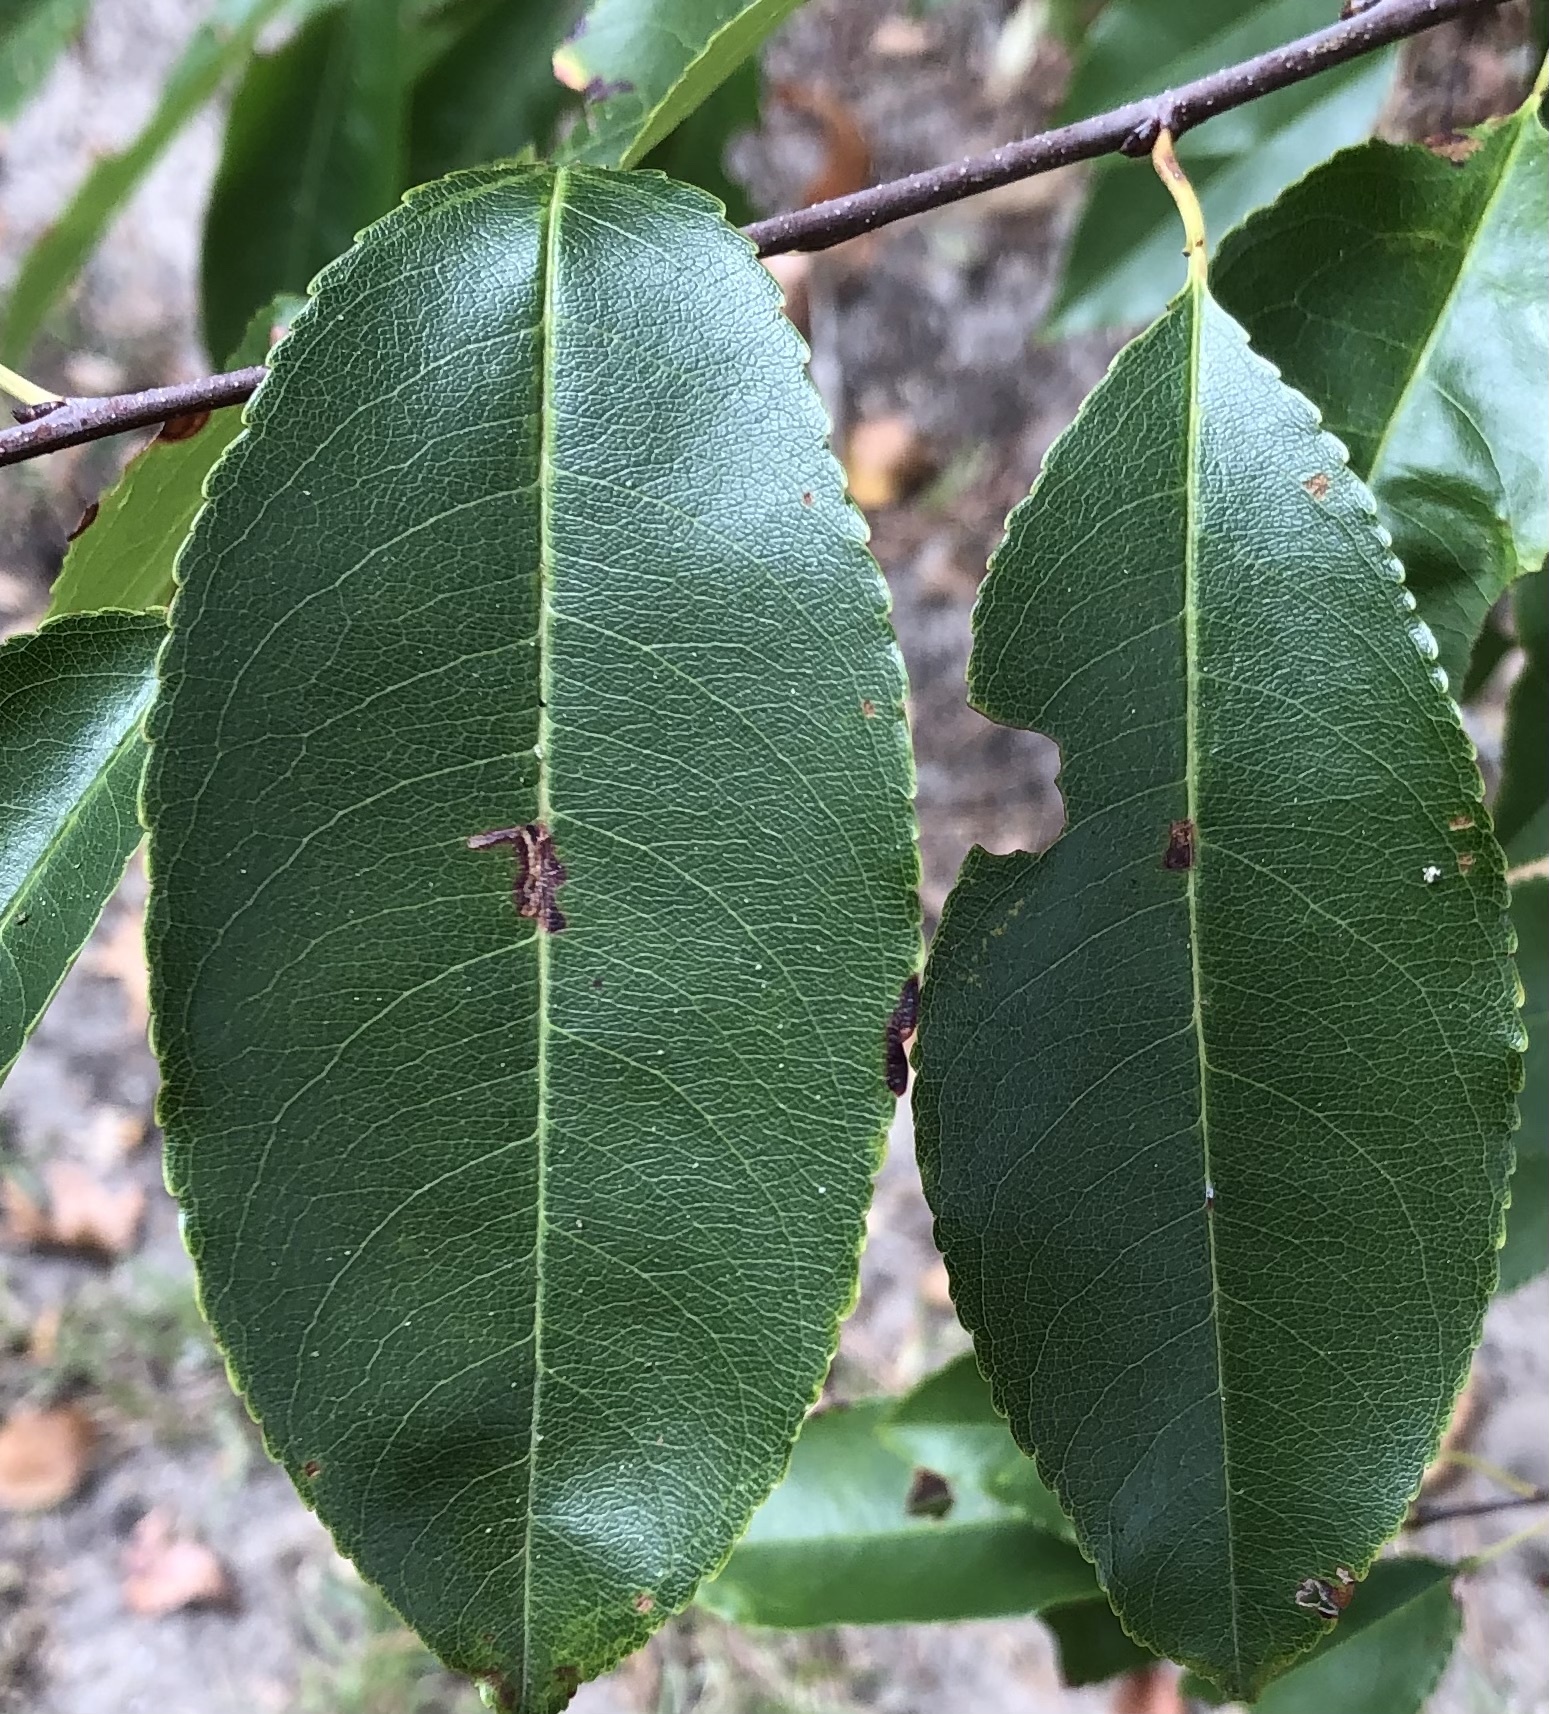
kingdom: Animalia
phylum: Arthropoda
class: Insecta
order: Lepidoptera
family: Bucculatricidae
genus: Bucculatrix
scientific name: Bucculatrix pomifoliella
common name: Apple skeletonizer moth
